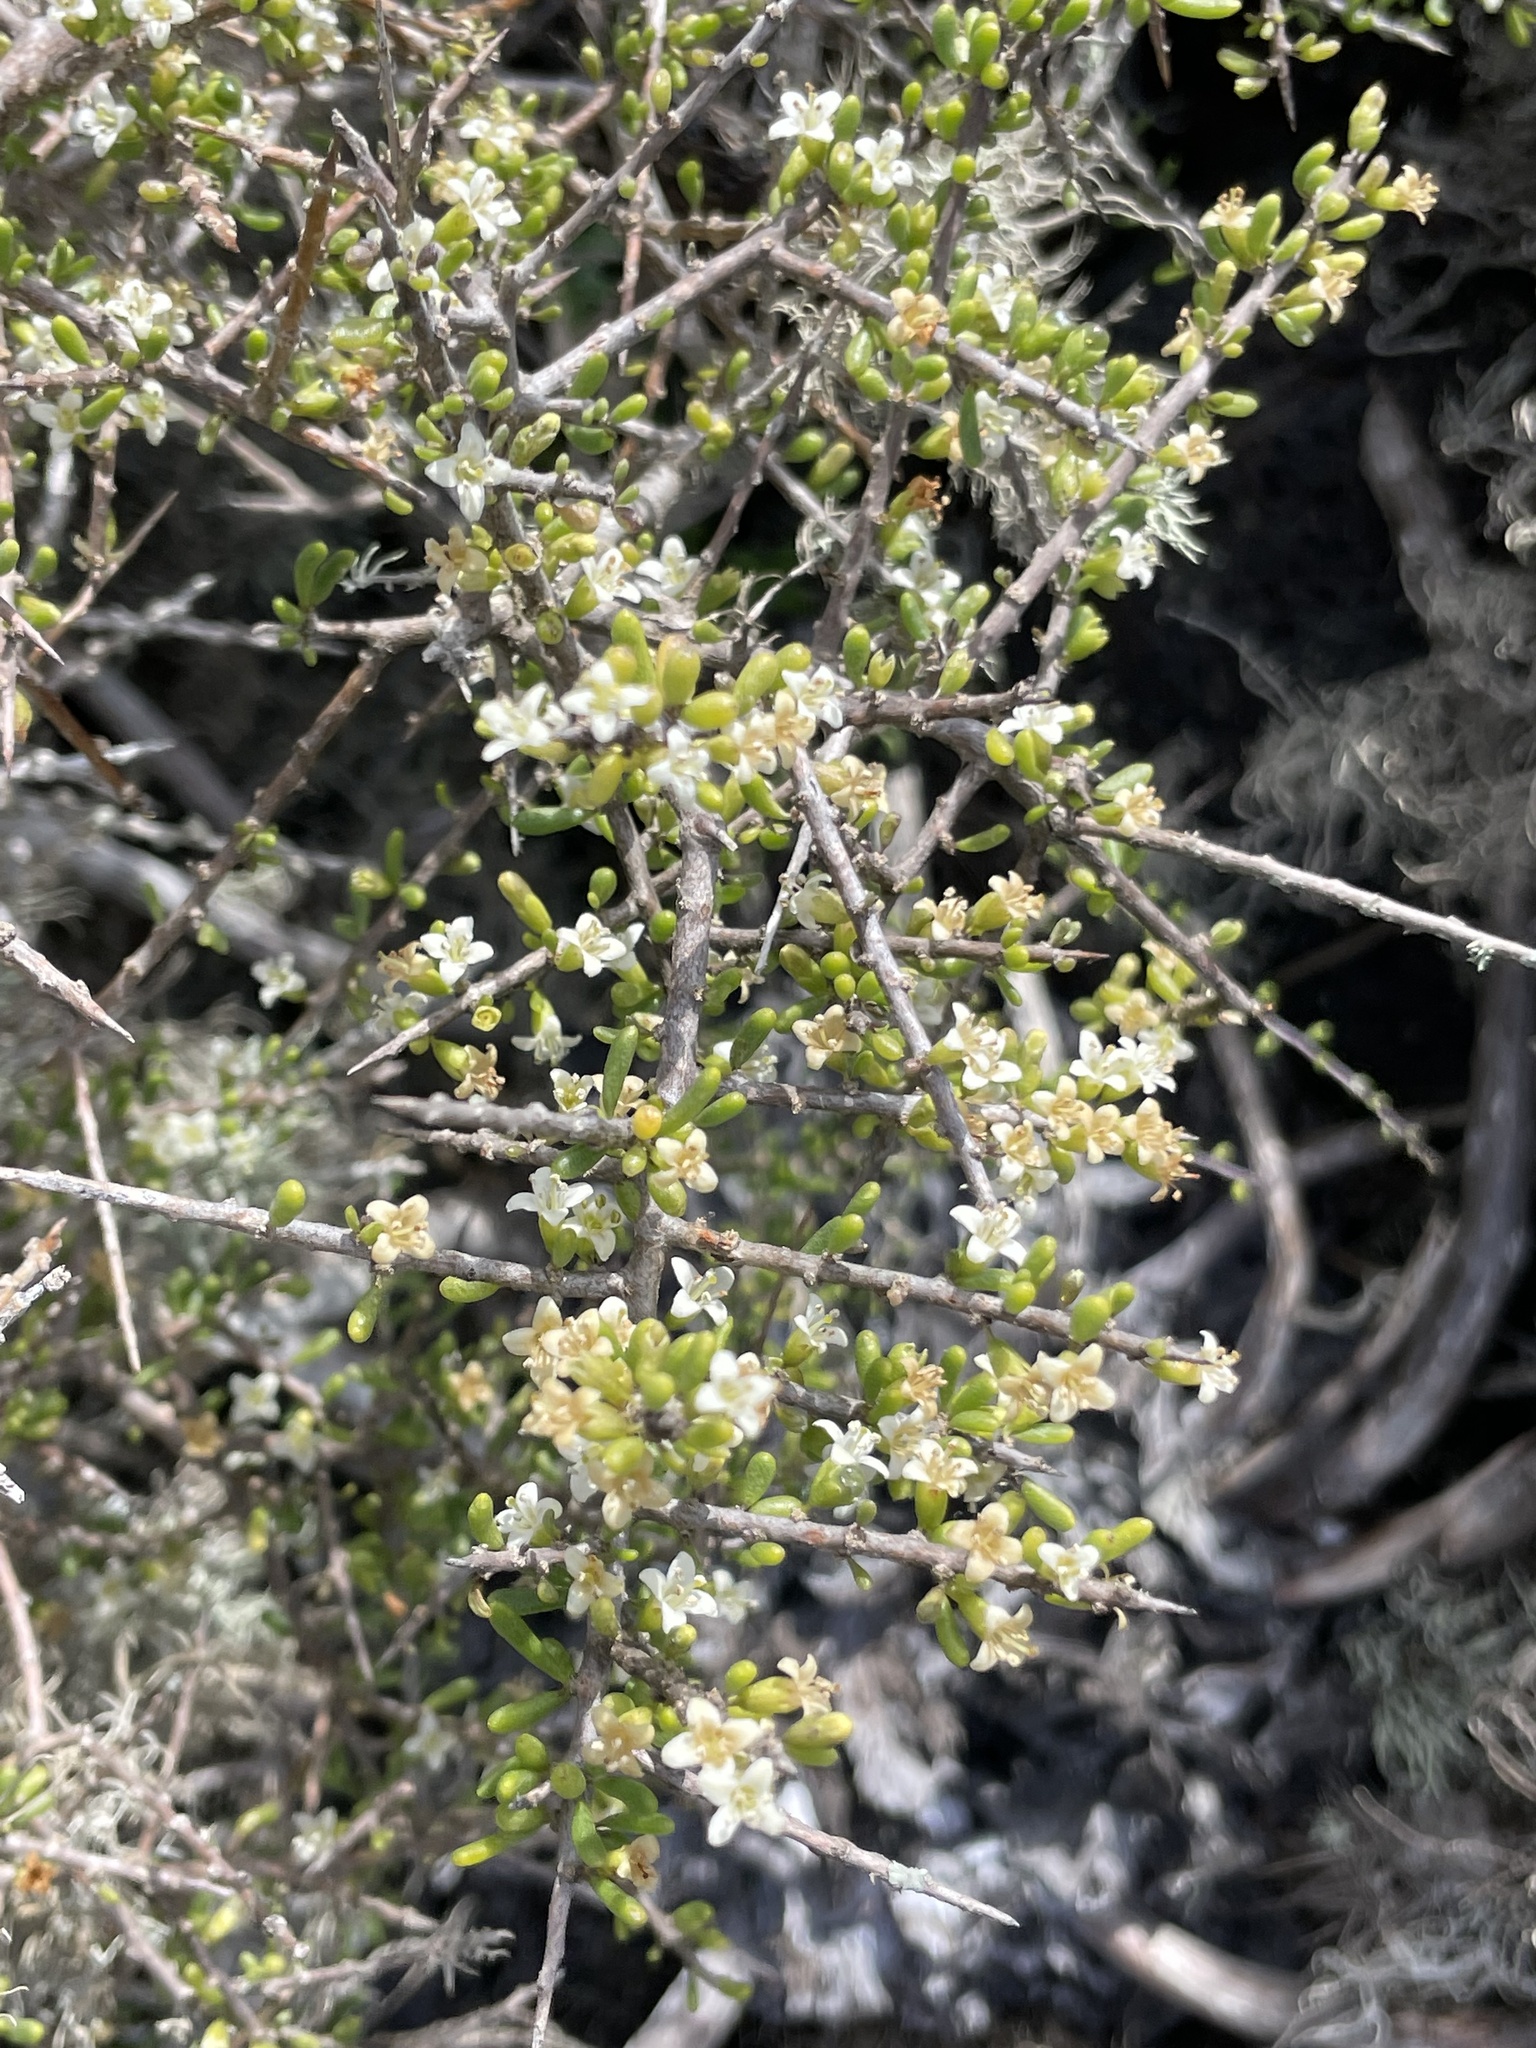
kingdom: Plantae
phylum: Tracheophyta
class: Magnoliopsida
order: Solanales
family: Solanaceae
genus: Lycium
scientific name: Lycium californicum
